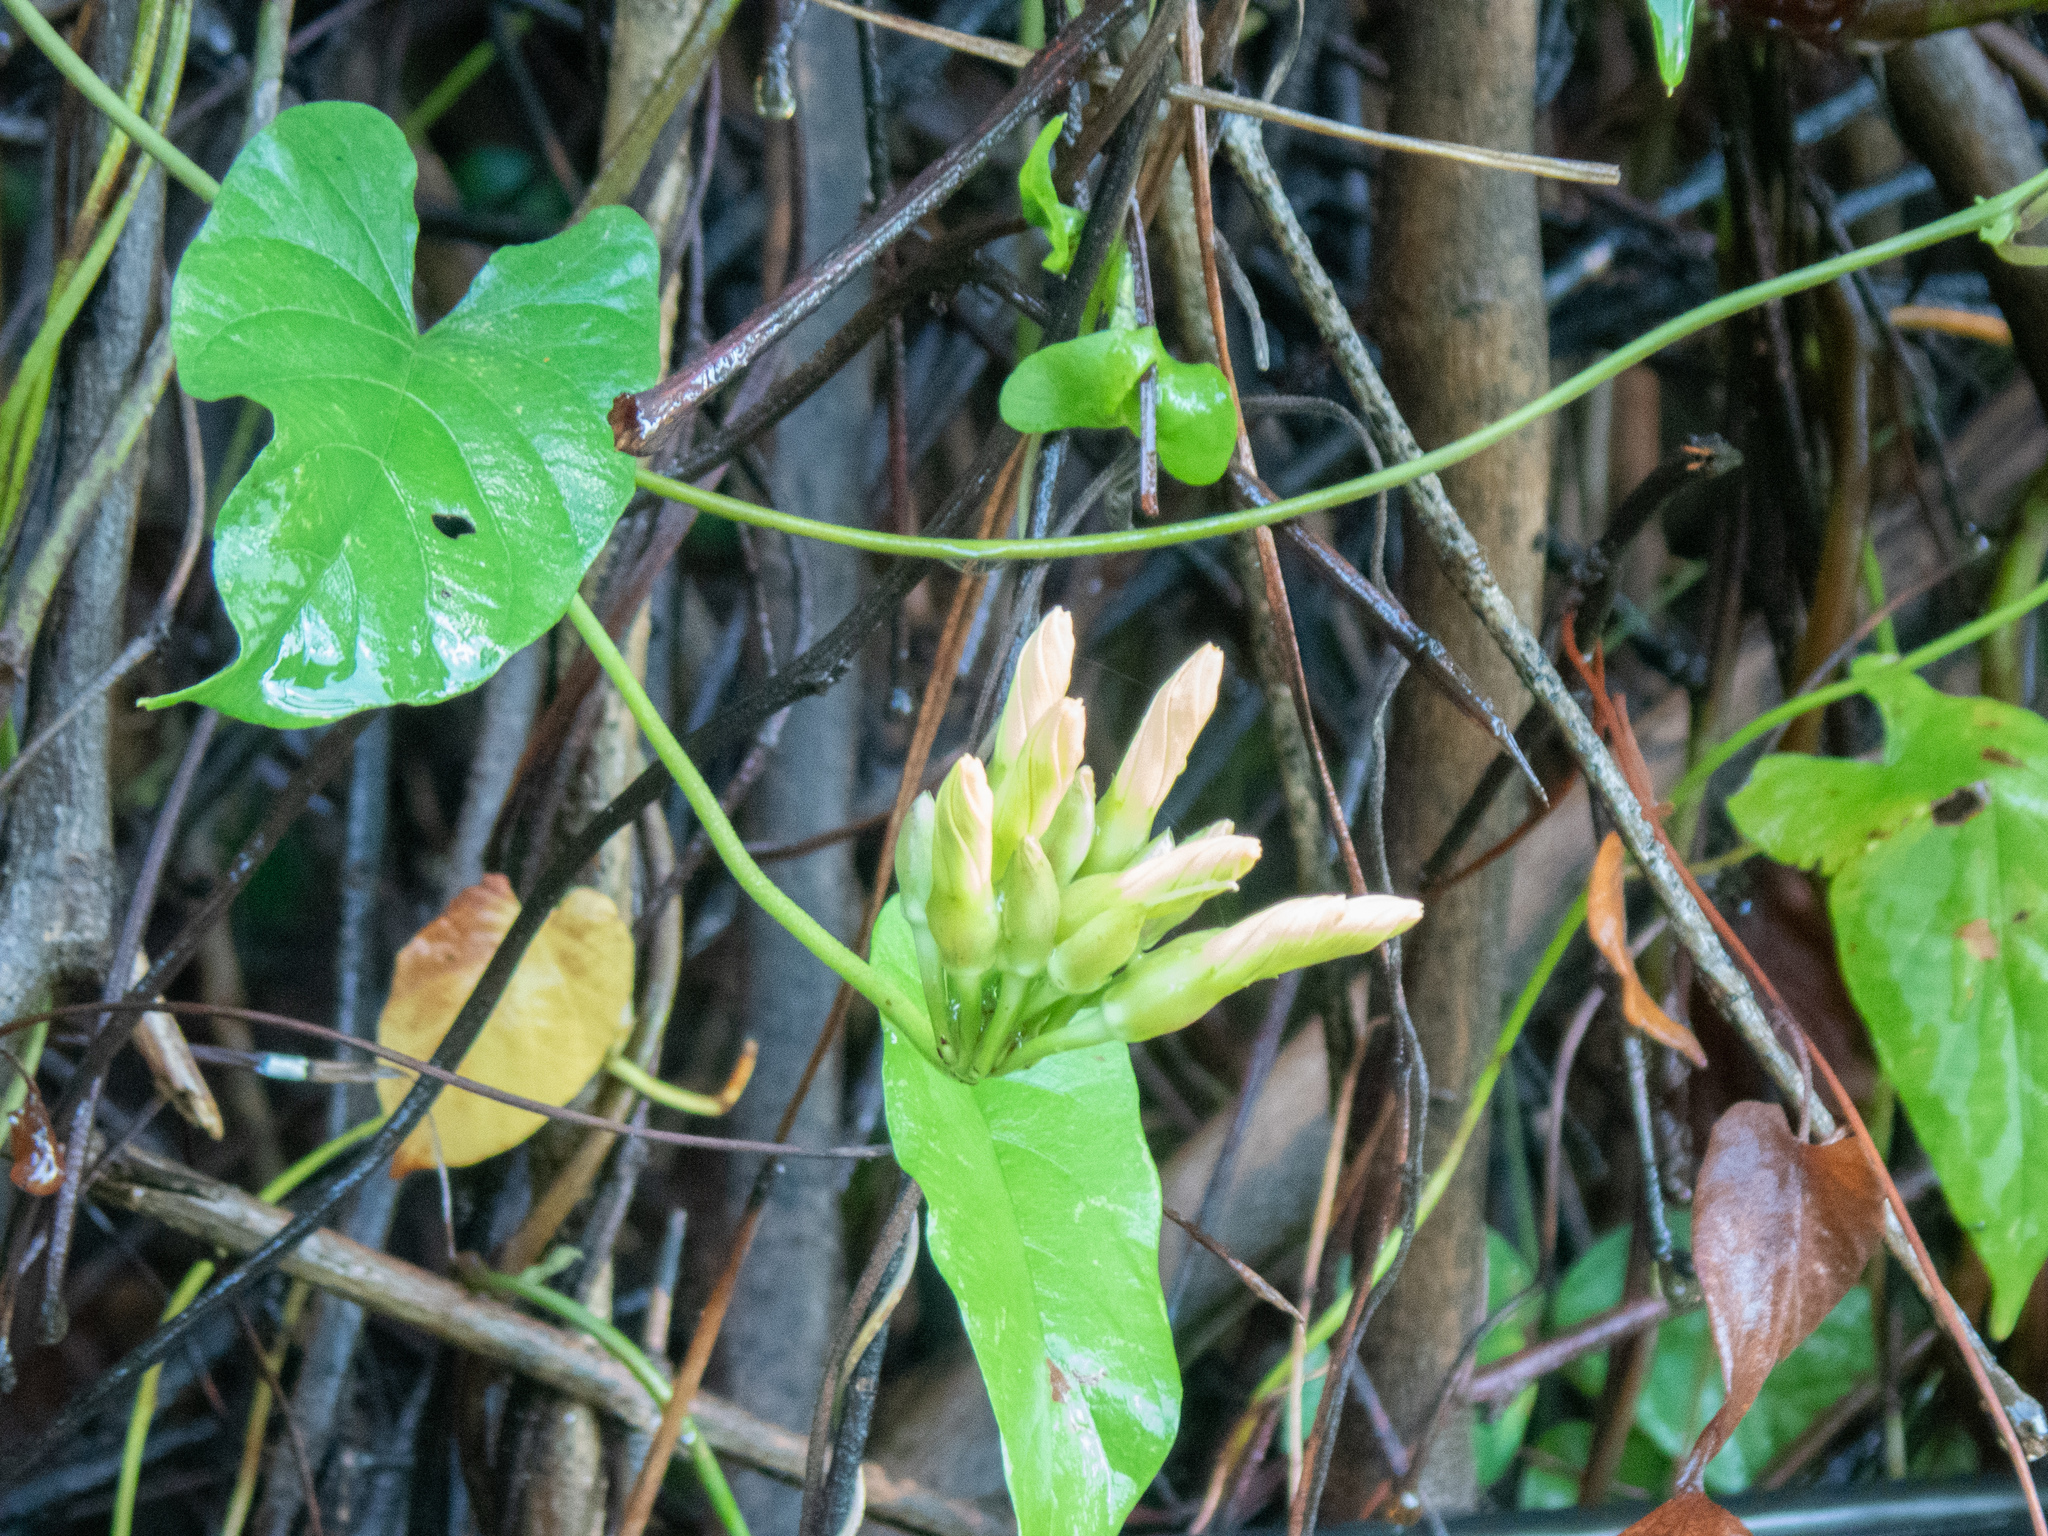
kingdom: Plantae
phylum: Tracheophyta
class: Magnoliopsida
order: Solanales
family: Convolvulaceae
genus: Camonea
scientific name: Camonea umbellata
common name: Hogvine
